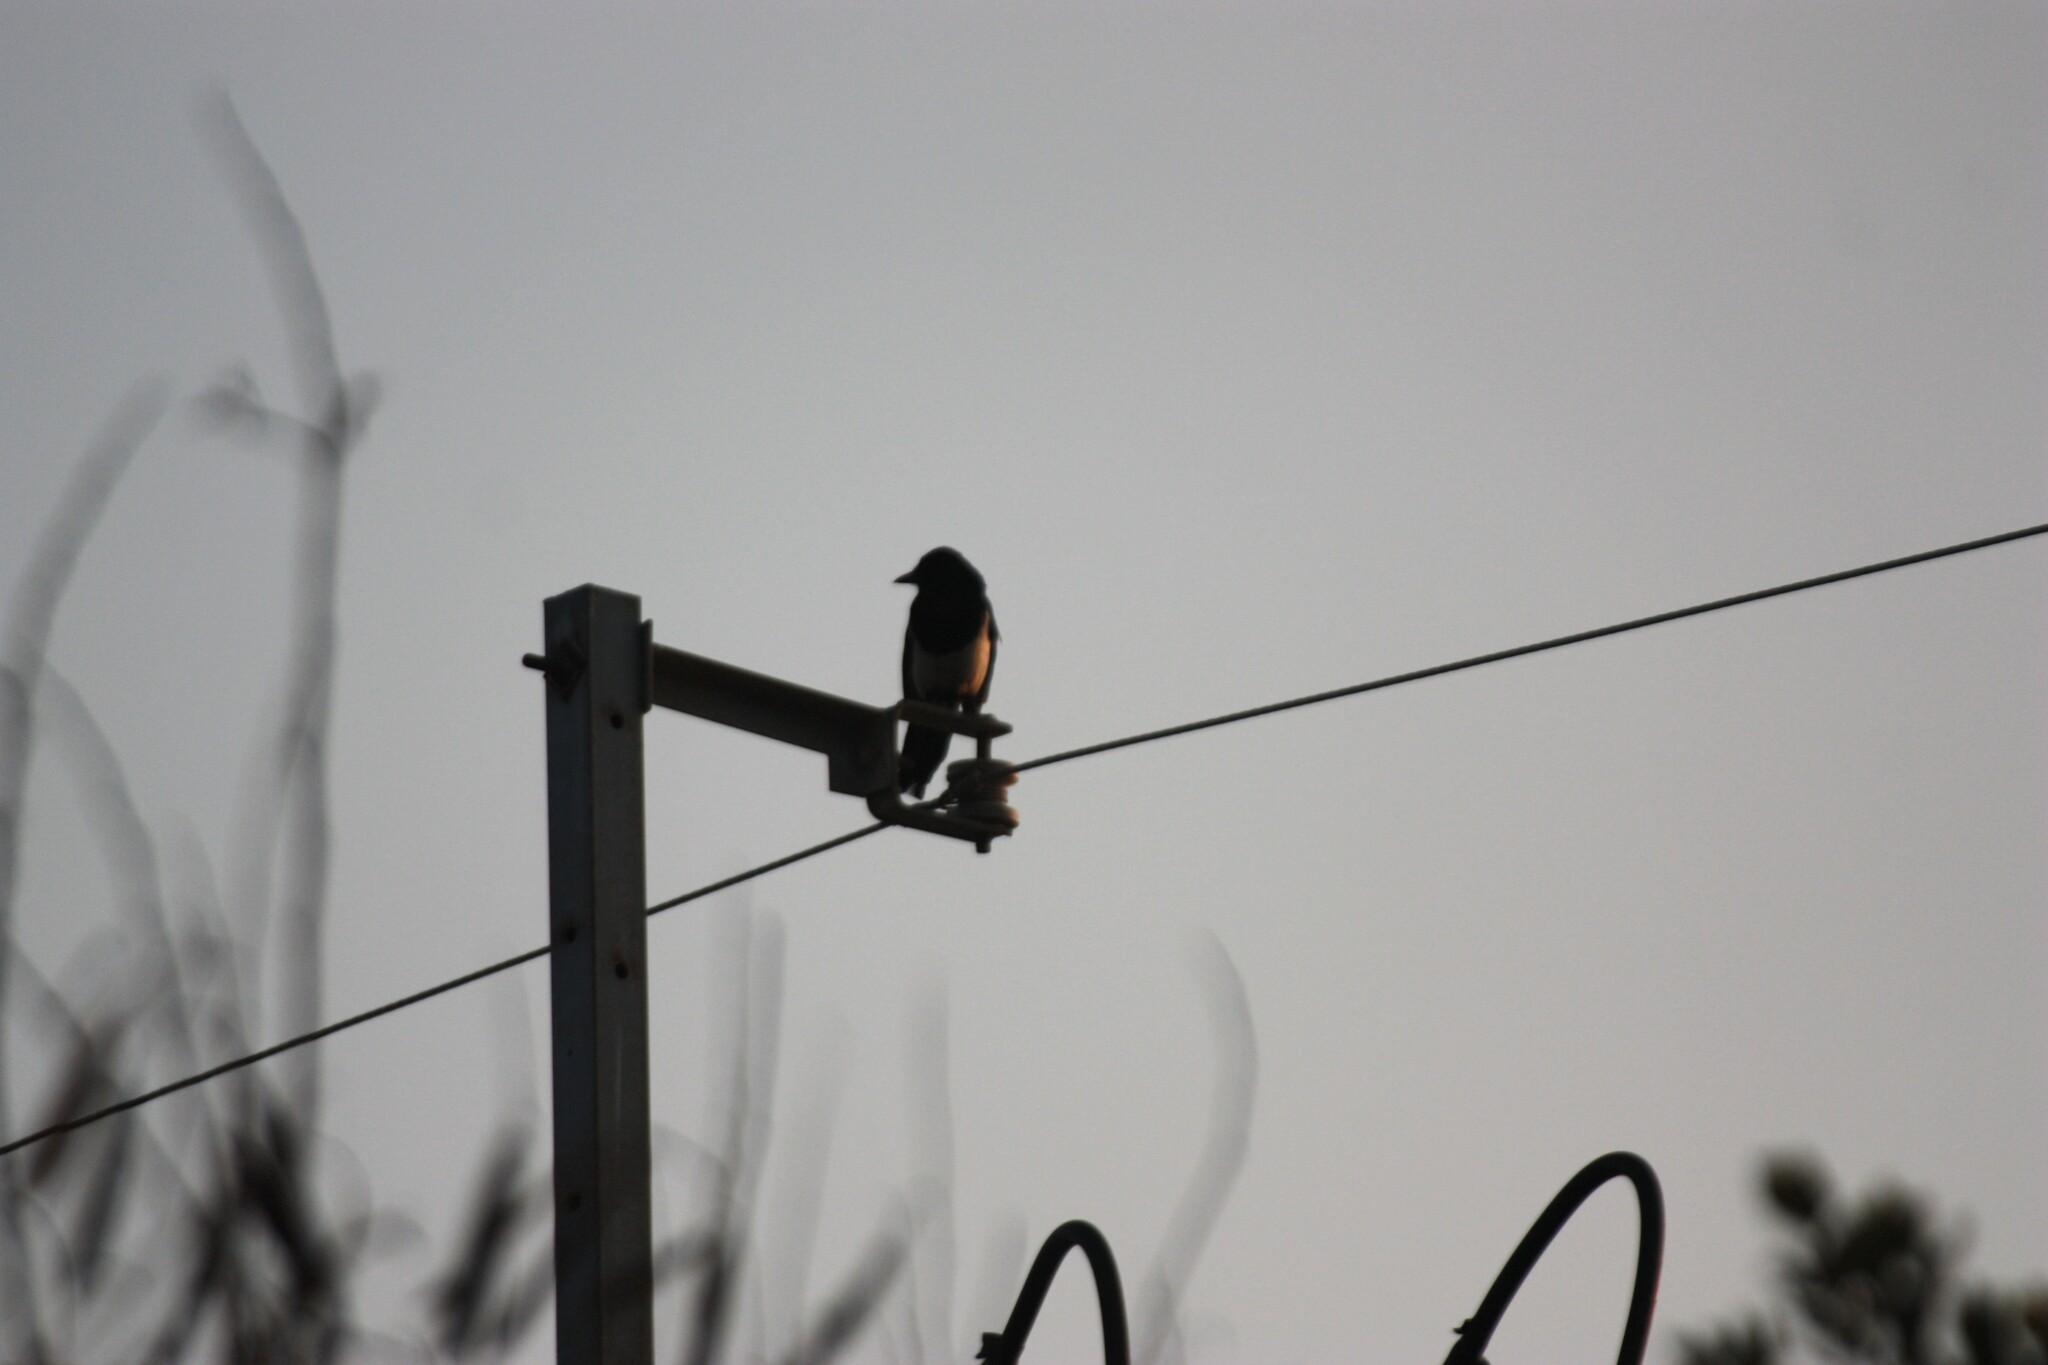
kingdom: Animalia
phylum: Chordata
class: Aves
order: Passeriformes
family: Corvidae
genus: Pica
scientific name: Pica serica
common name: Oriental magpie
